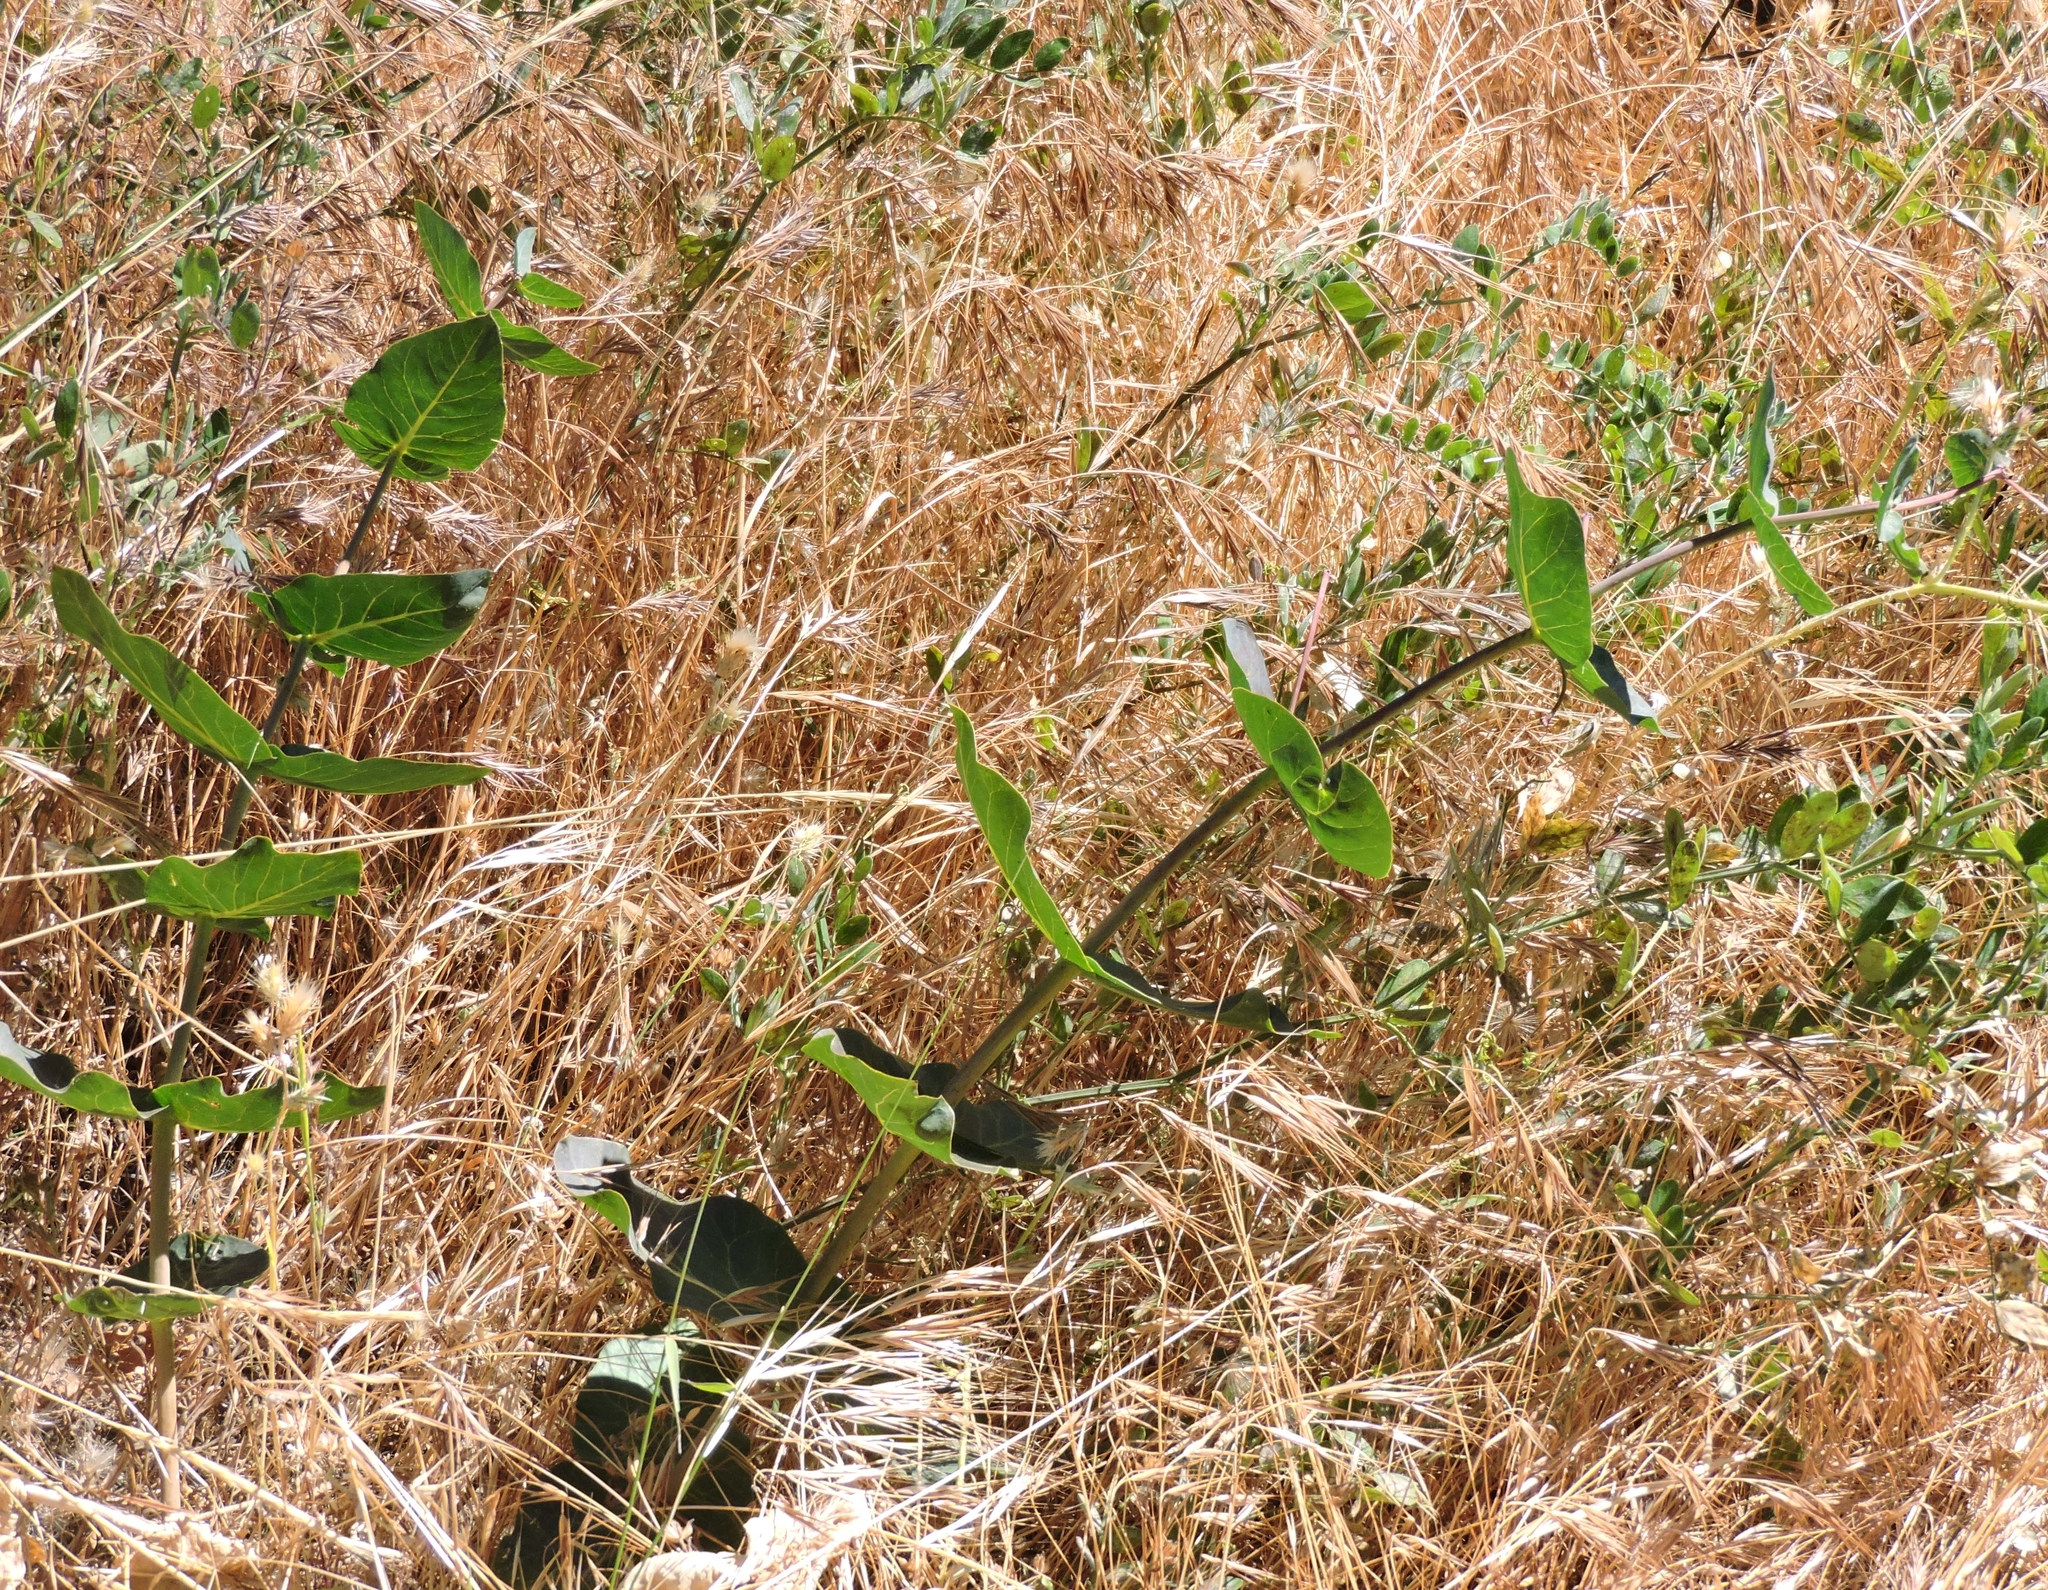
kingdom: Plantae
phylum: Tracheophyta
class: Magnoliopsida
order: Gentianales
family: Apocynaceae
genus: Asclepias
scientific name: Asclepias cordifolia
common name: Purple milkweed
